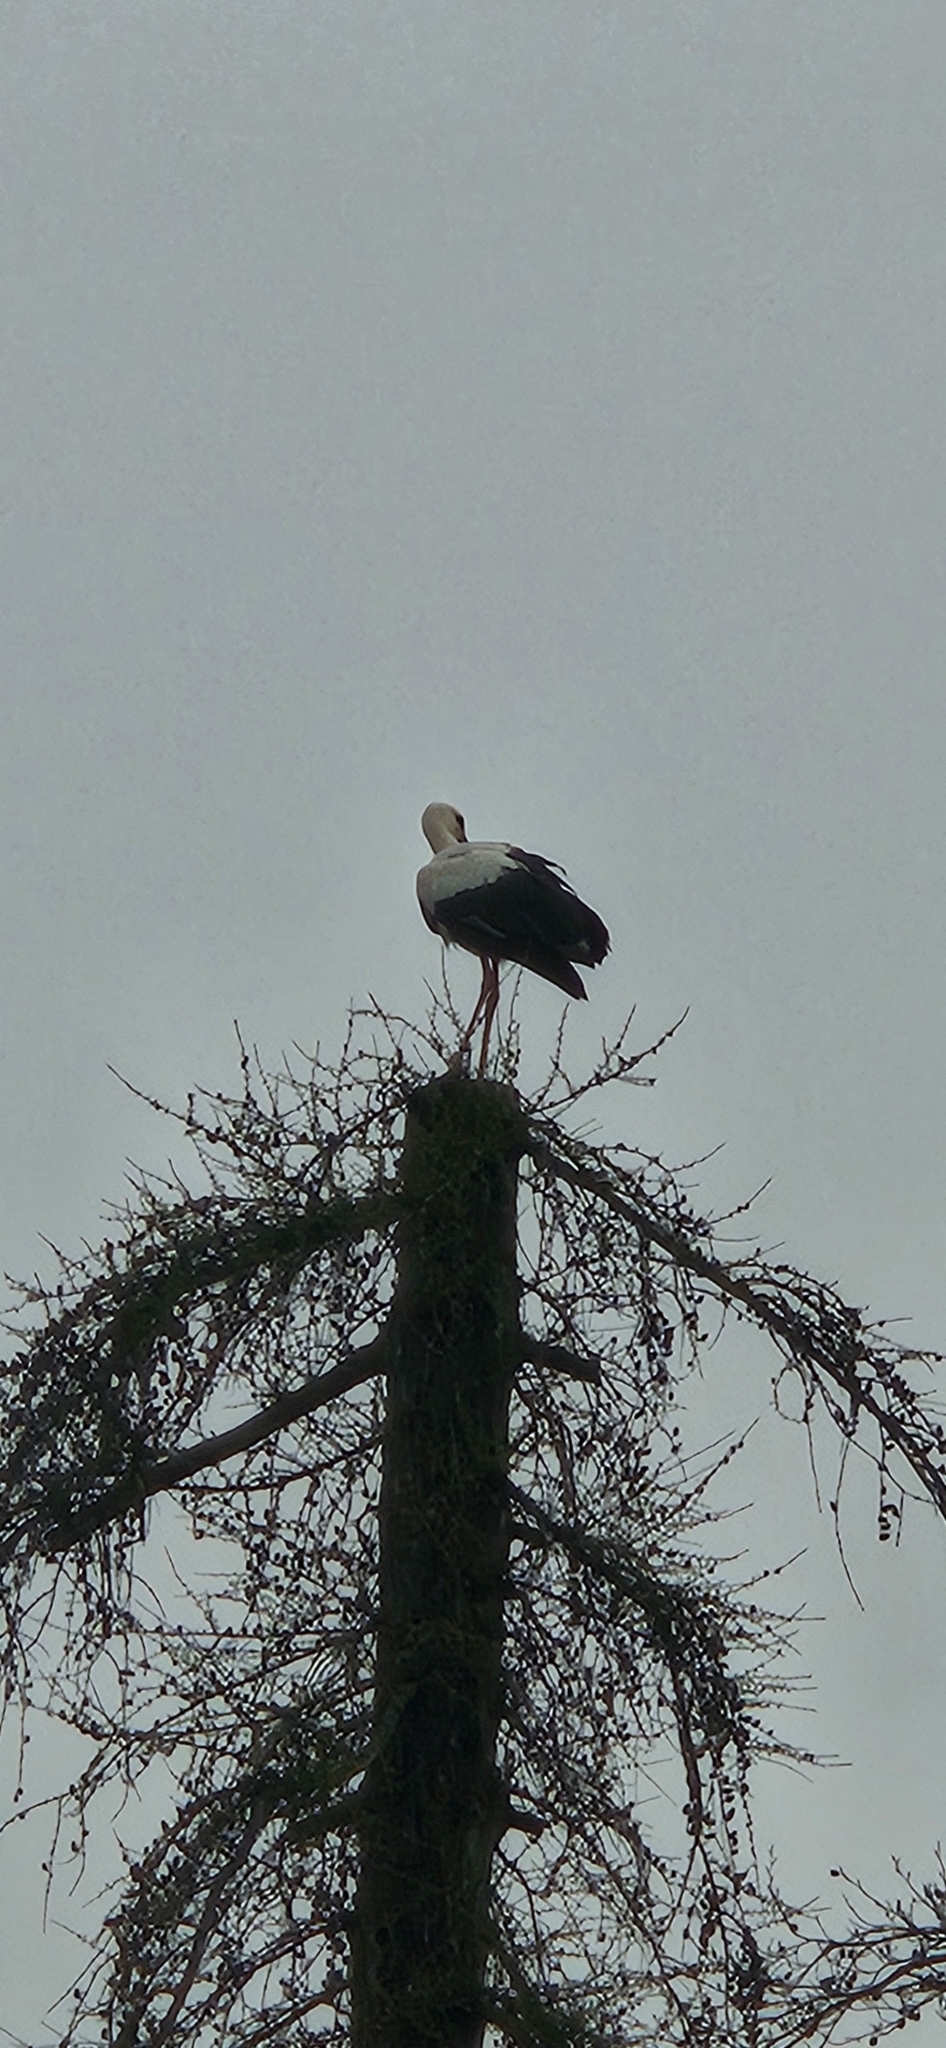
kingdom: Animalia
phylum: Chordata
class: Aves
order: Ciconiiformes
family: Ciconiidae
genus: Ciconia
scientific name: Ciconia ciconia
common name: White stork
